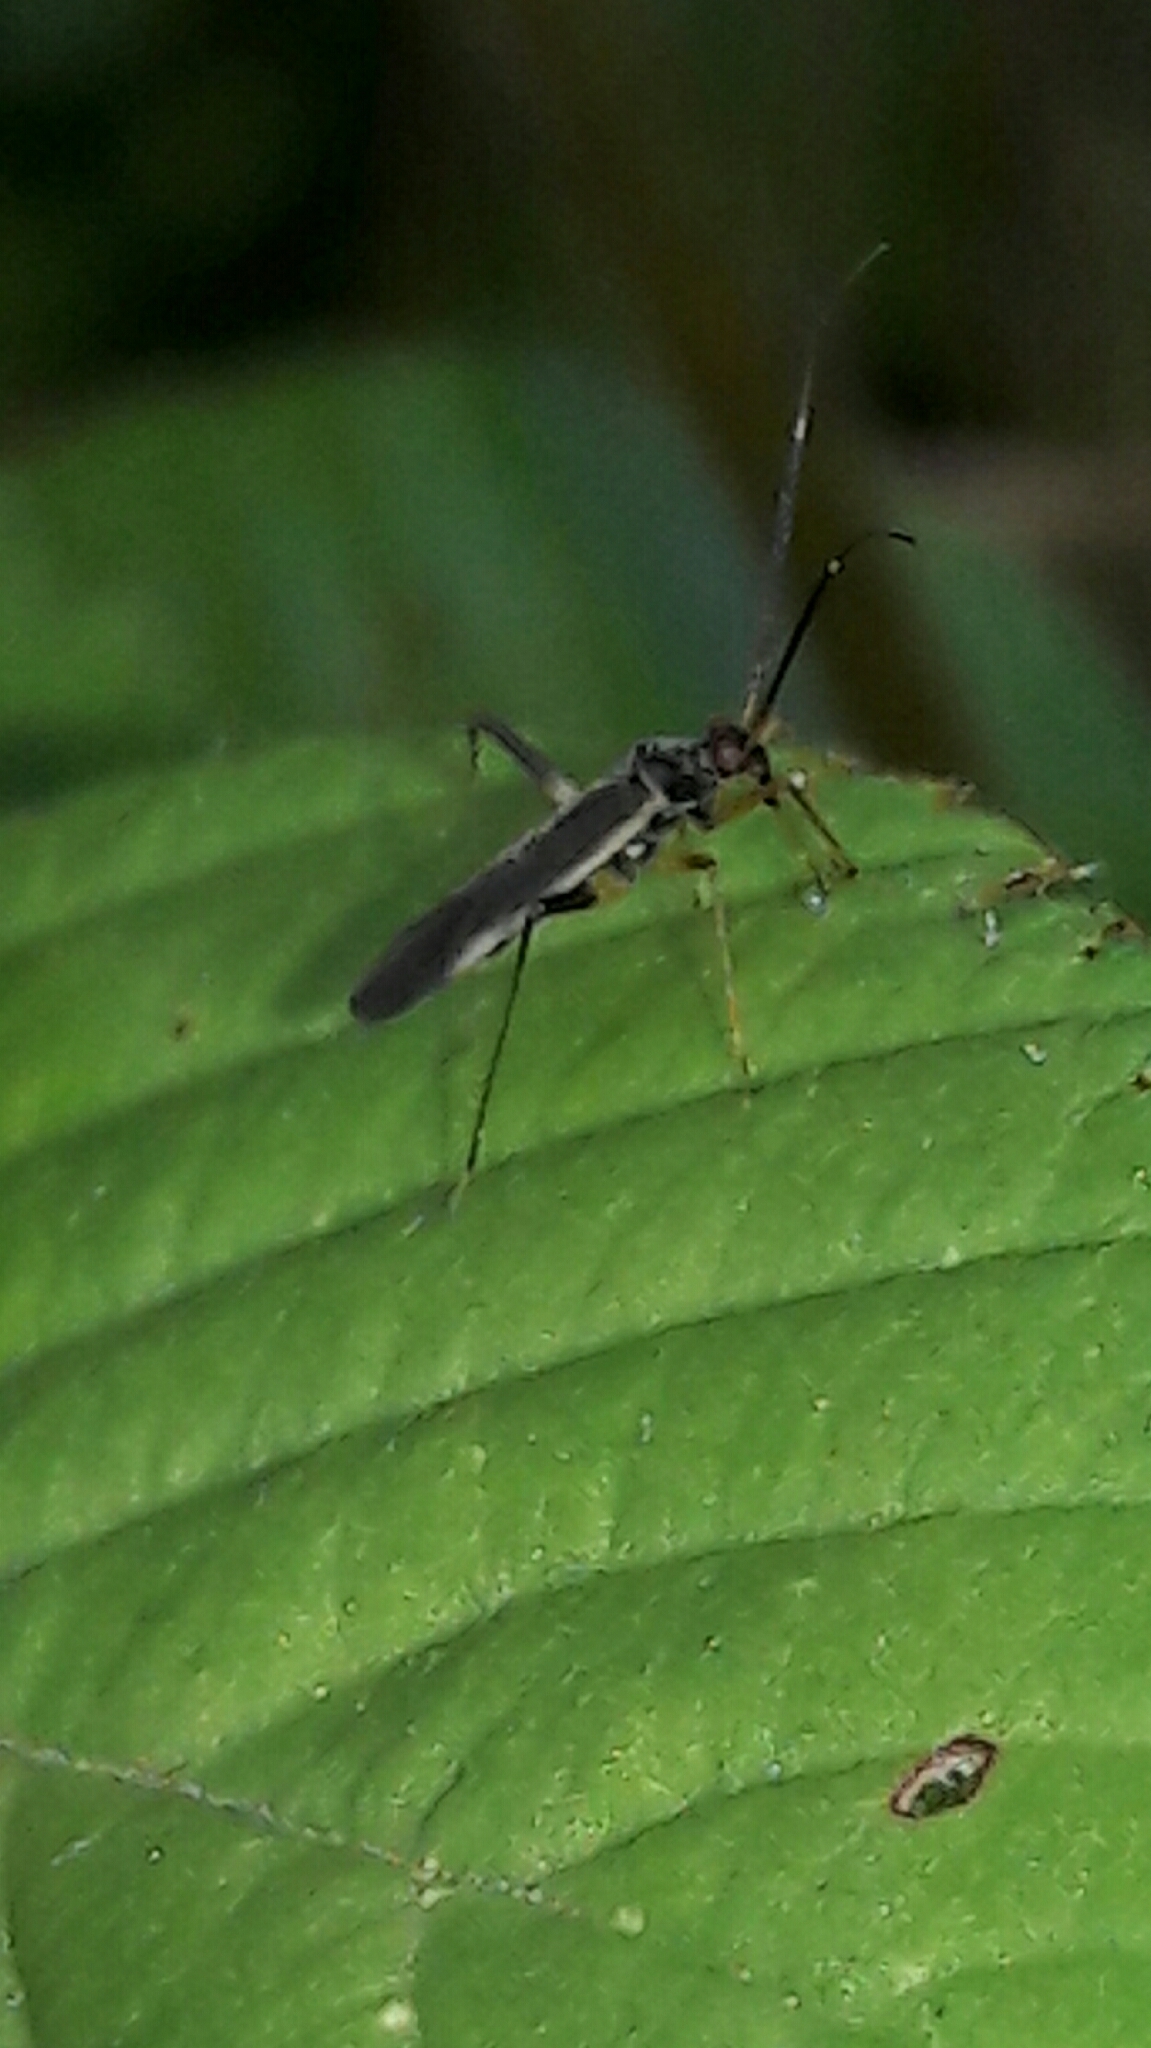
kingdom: Animalia
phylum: Arthropoda
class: Insecta
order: Hemiptera
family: Miridae
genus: Garganus
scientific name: Garganus gracilentus
